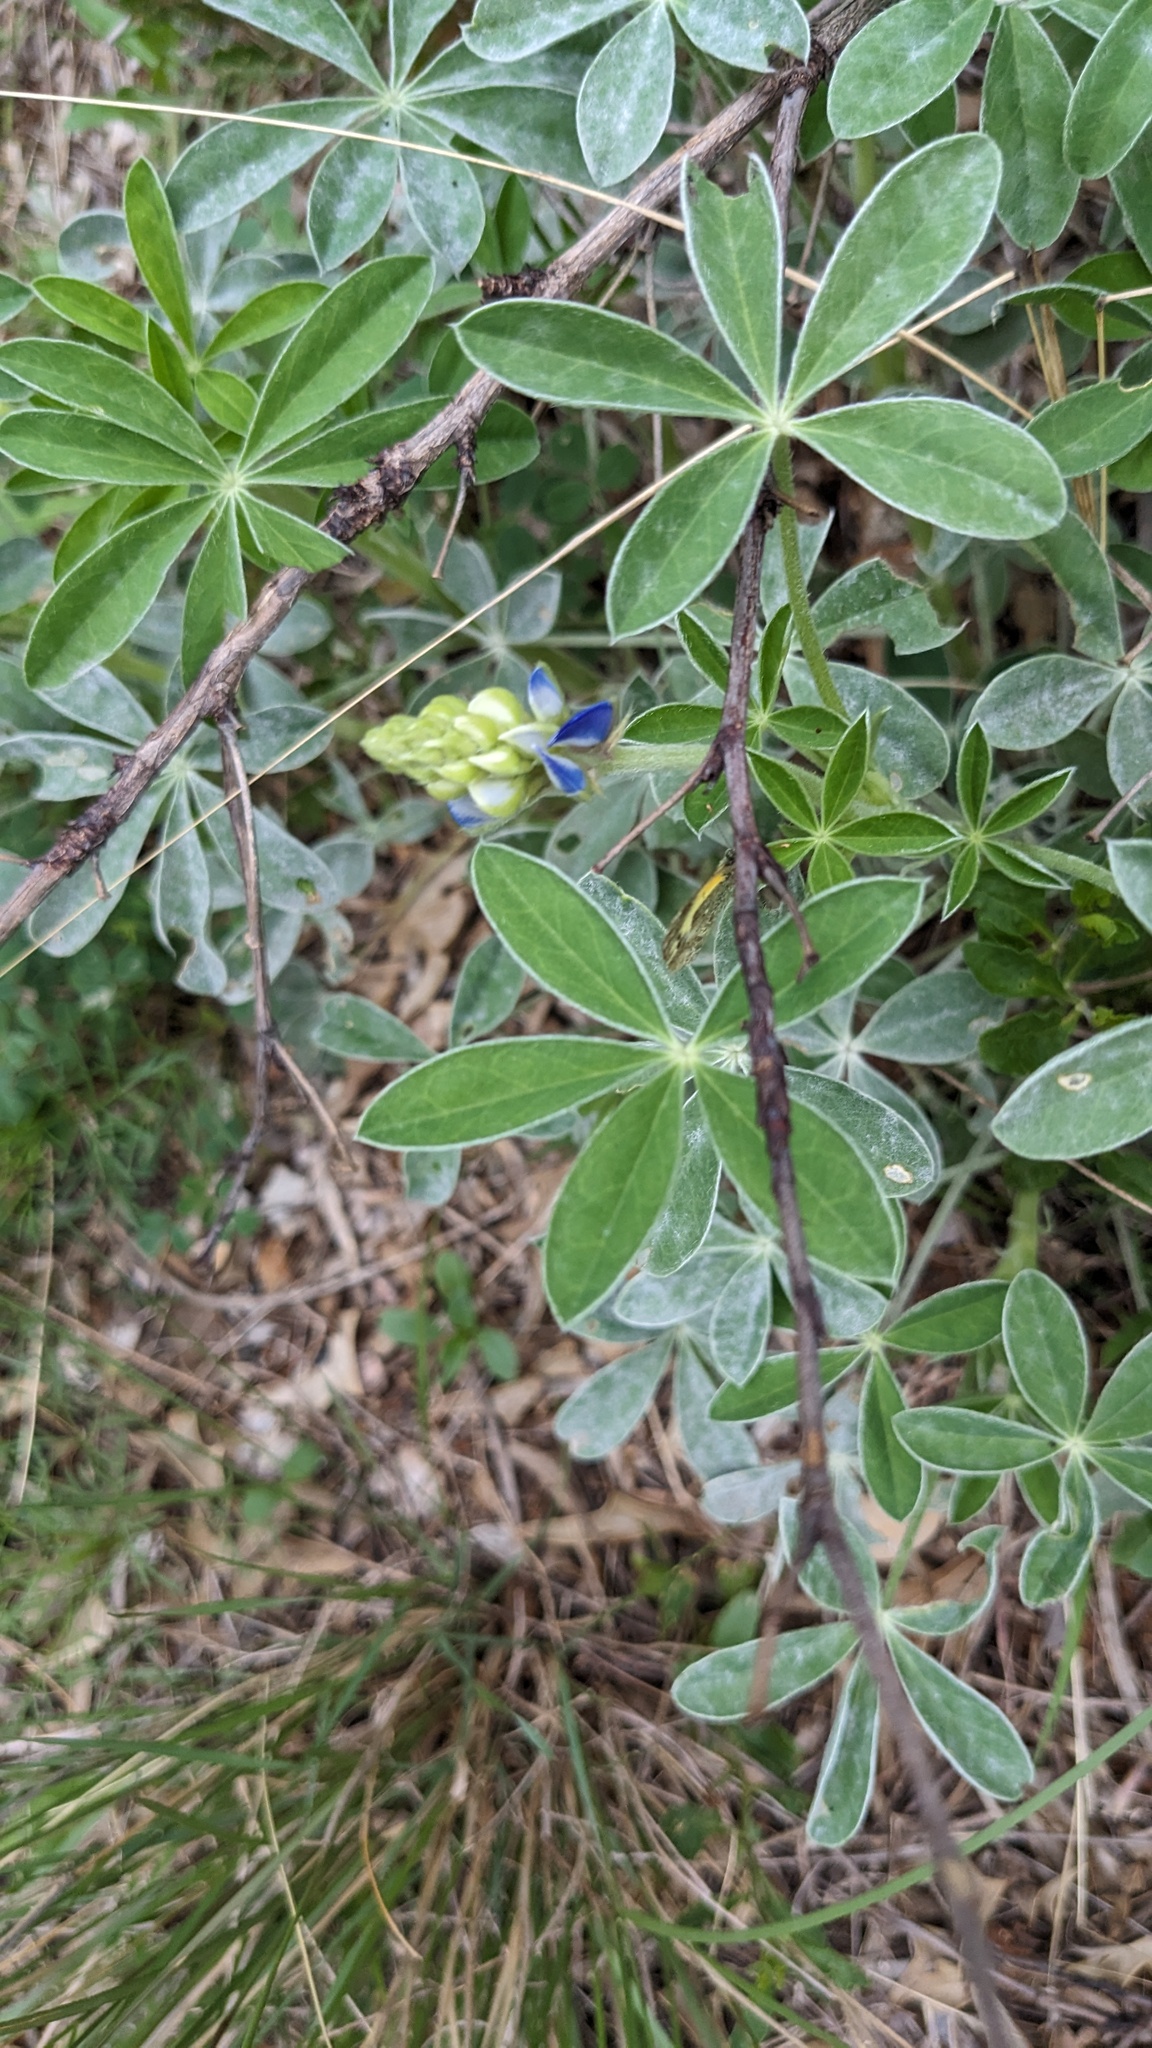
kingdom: Plantae
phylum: Tracheophyta
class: Magnoliopsida
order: Fabales
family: Fabaceae
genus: Lupinus
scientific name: Lupinus texensis
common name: Texas bluebonnet
